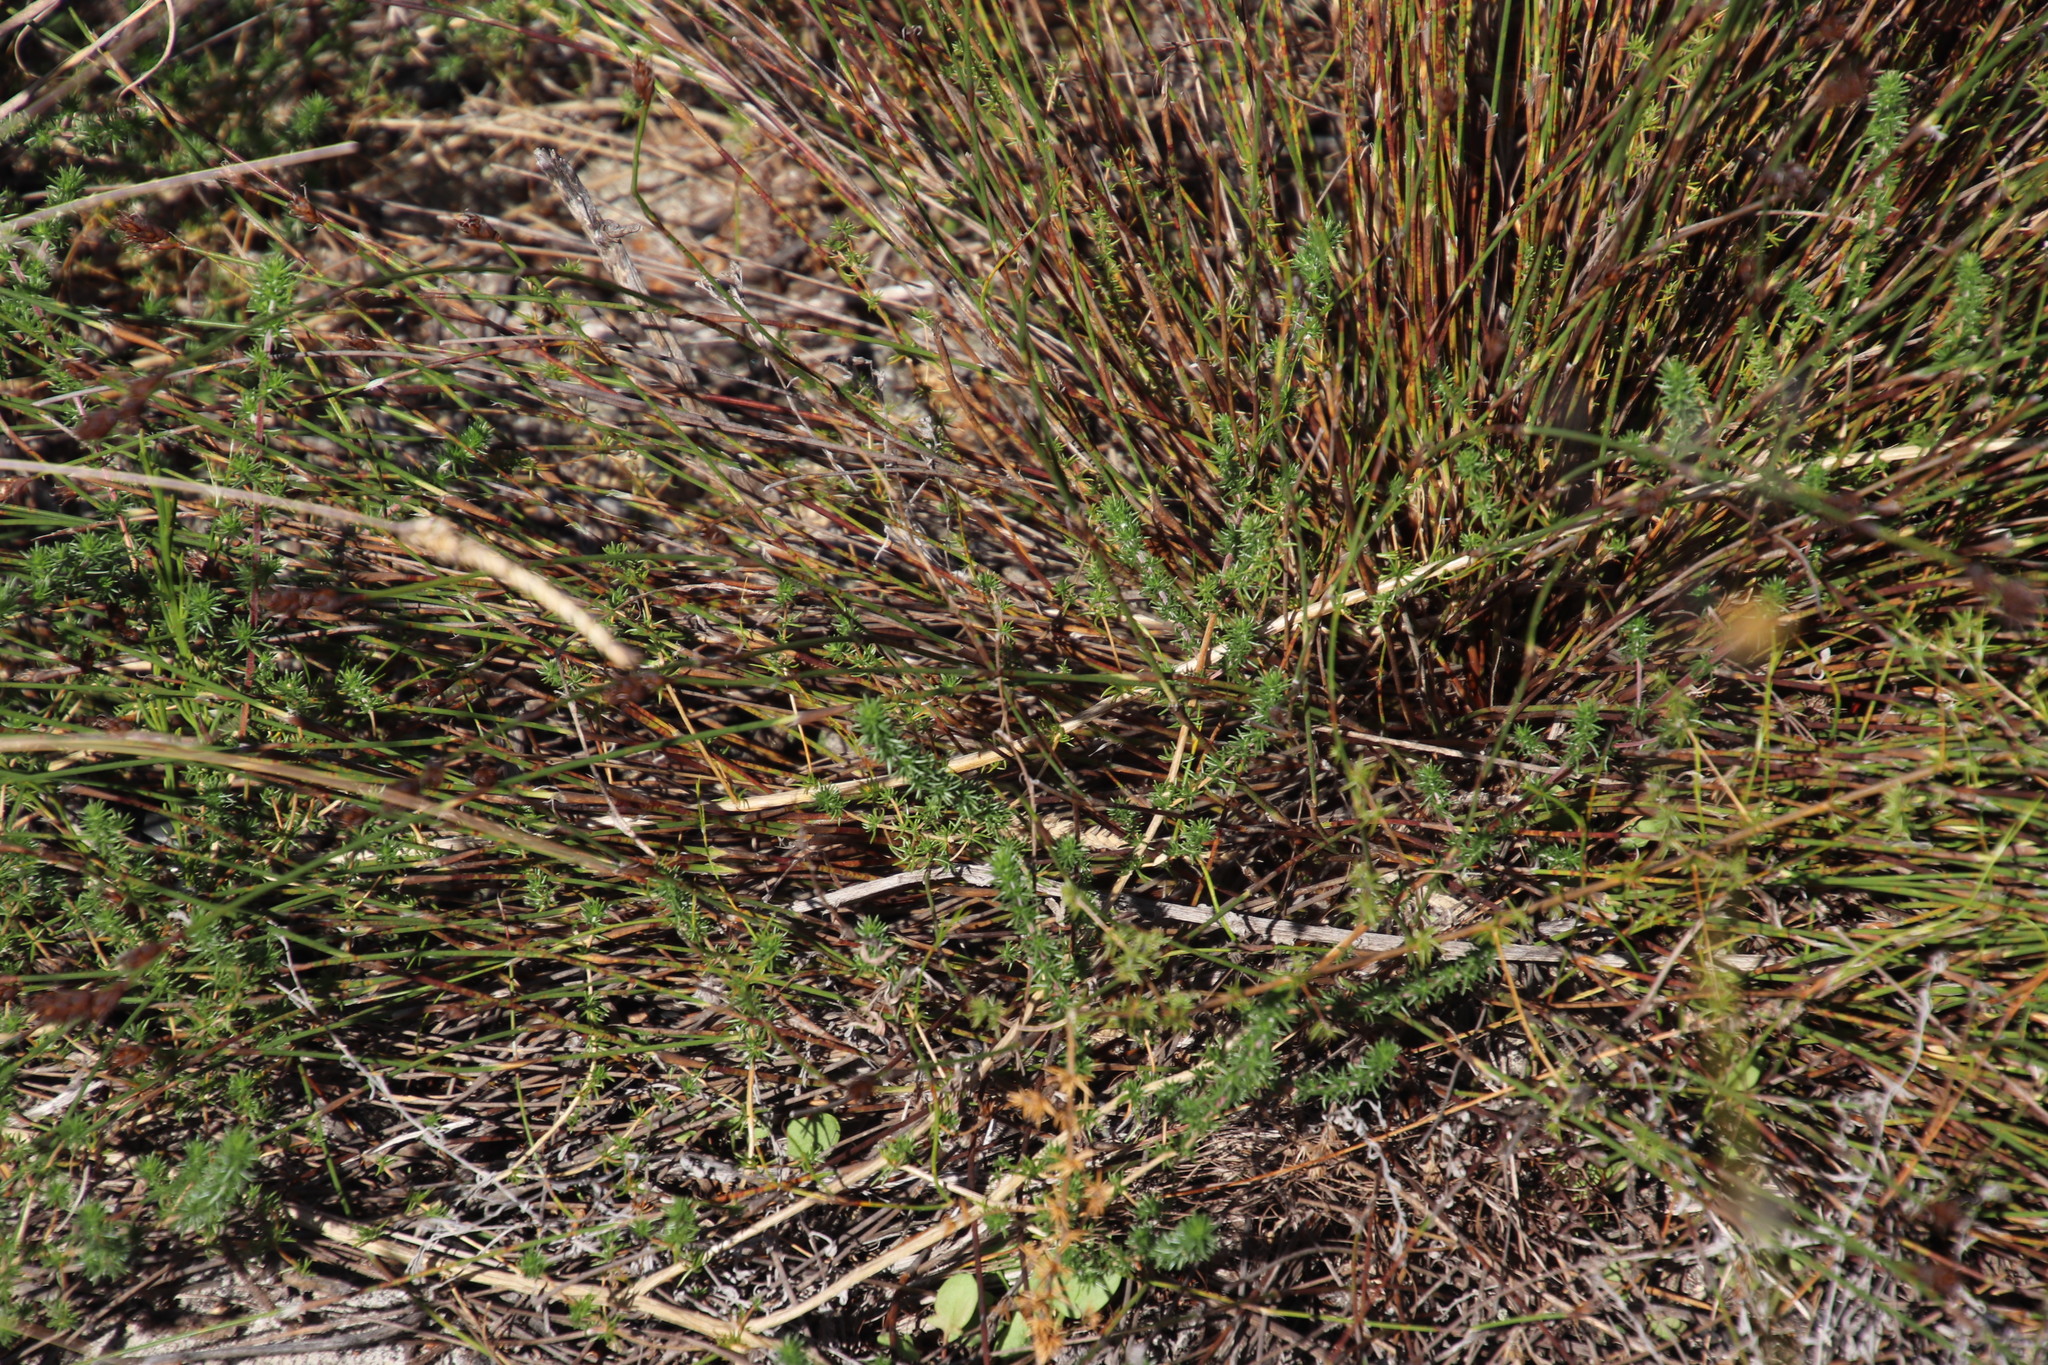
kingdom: Plantae
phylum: Tracheophyta
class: Magnoliopsida
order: Fabales
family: Fabaceae
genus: Aspalathus
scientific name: Aspalathus retroflexa
